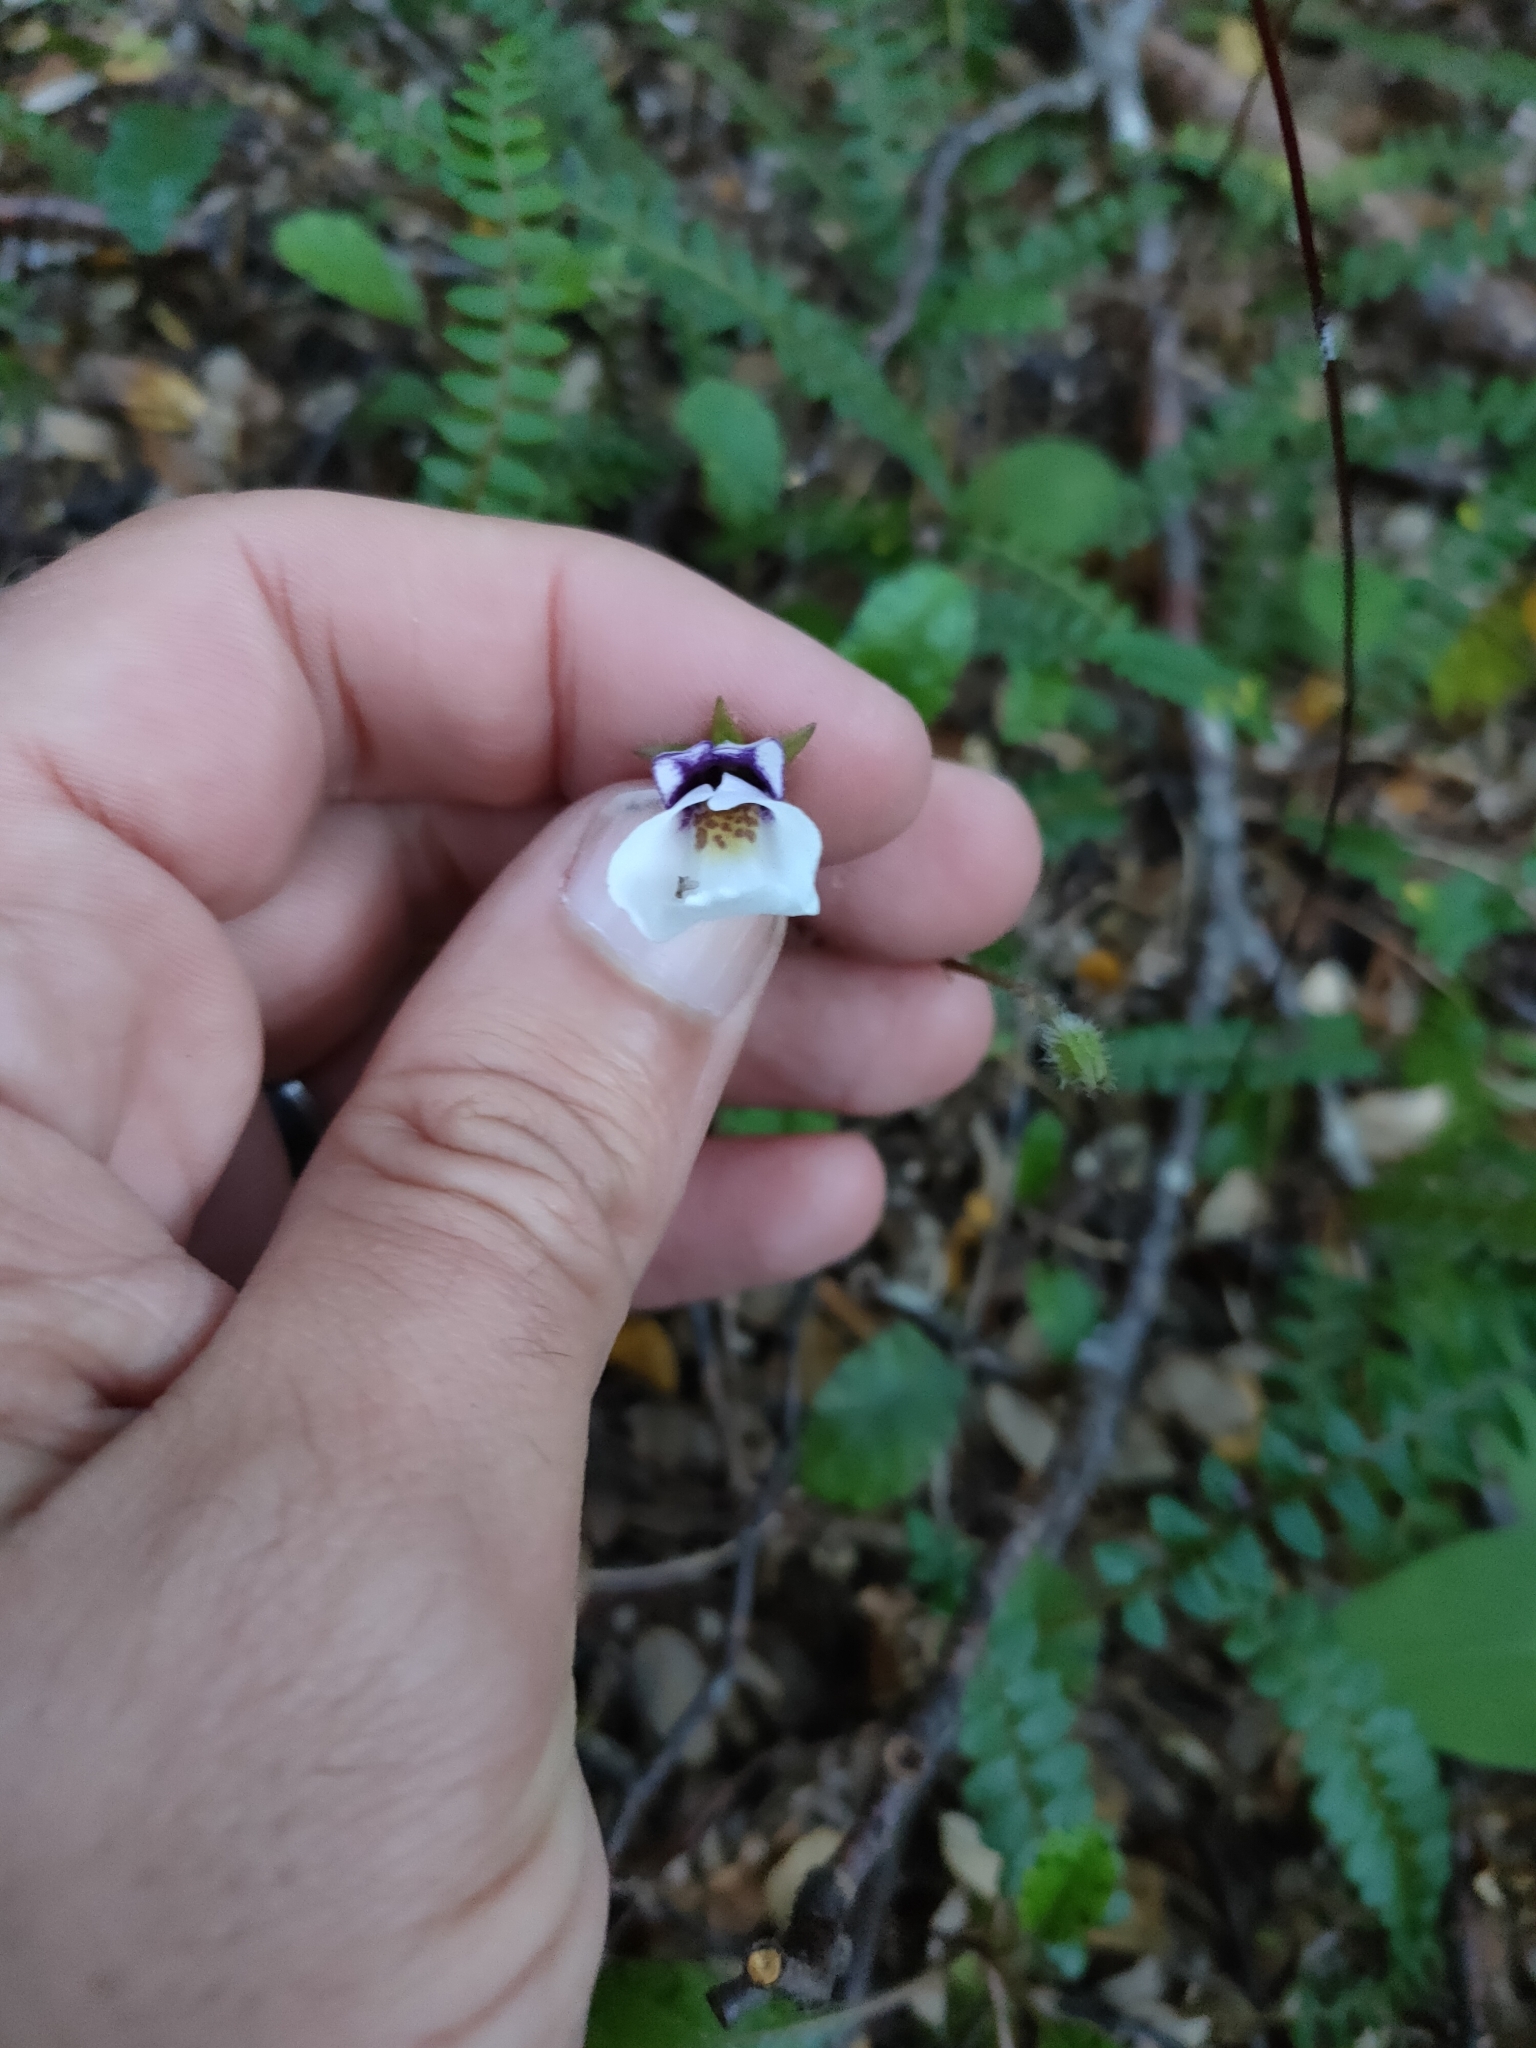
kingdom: Plantae
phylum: Tracheophyta
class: Magnoliopsida
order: Lamiales
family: Mazaceae
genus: Mazus
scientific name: Mazus radicans
